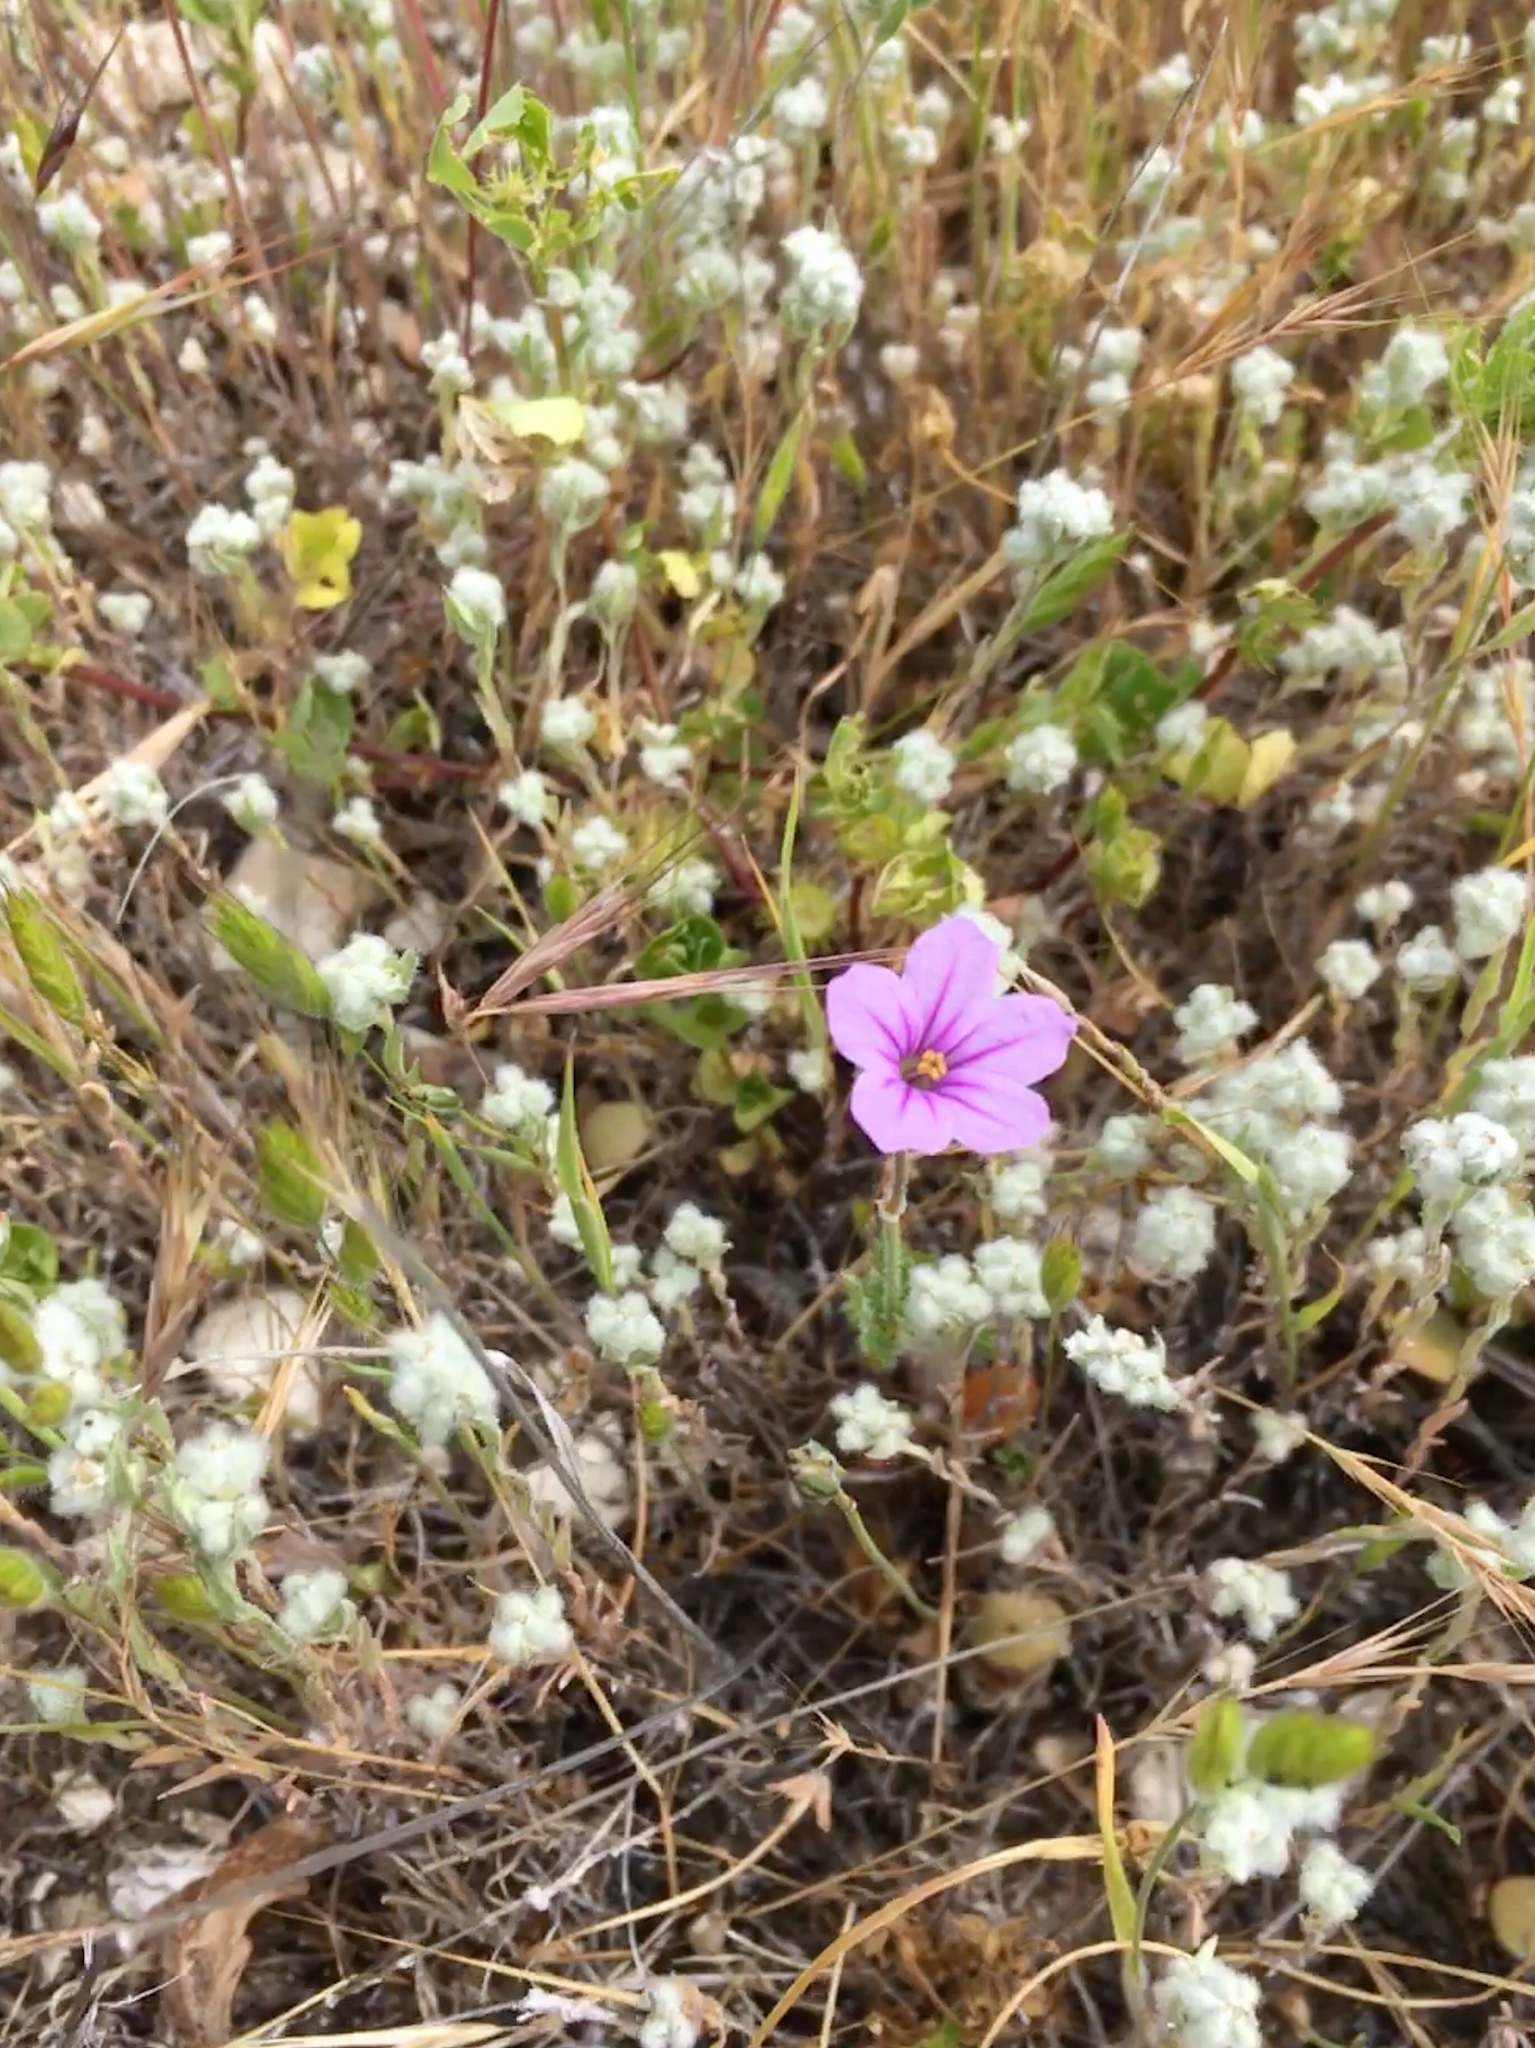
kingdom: Plantae
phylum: Tracheophyta
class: Magnoliopsida
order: Geraniales
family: Geraniaceae
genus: Erodium
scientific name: Erodium botrys
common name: Mediterranean stork's-bill
